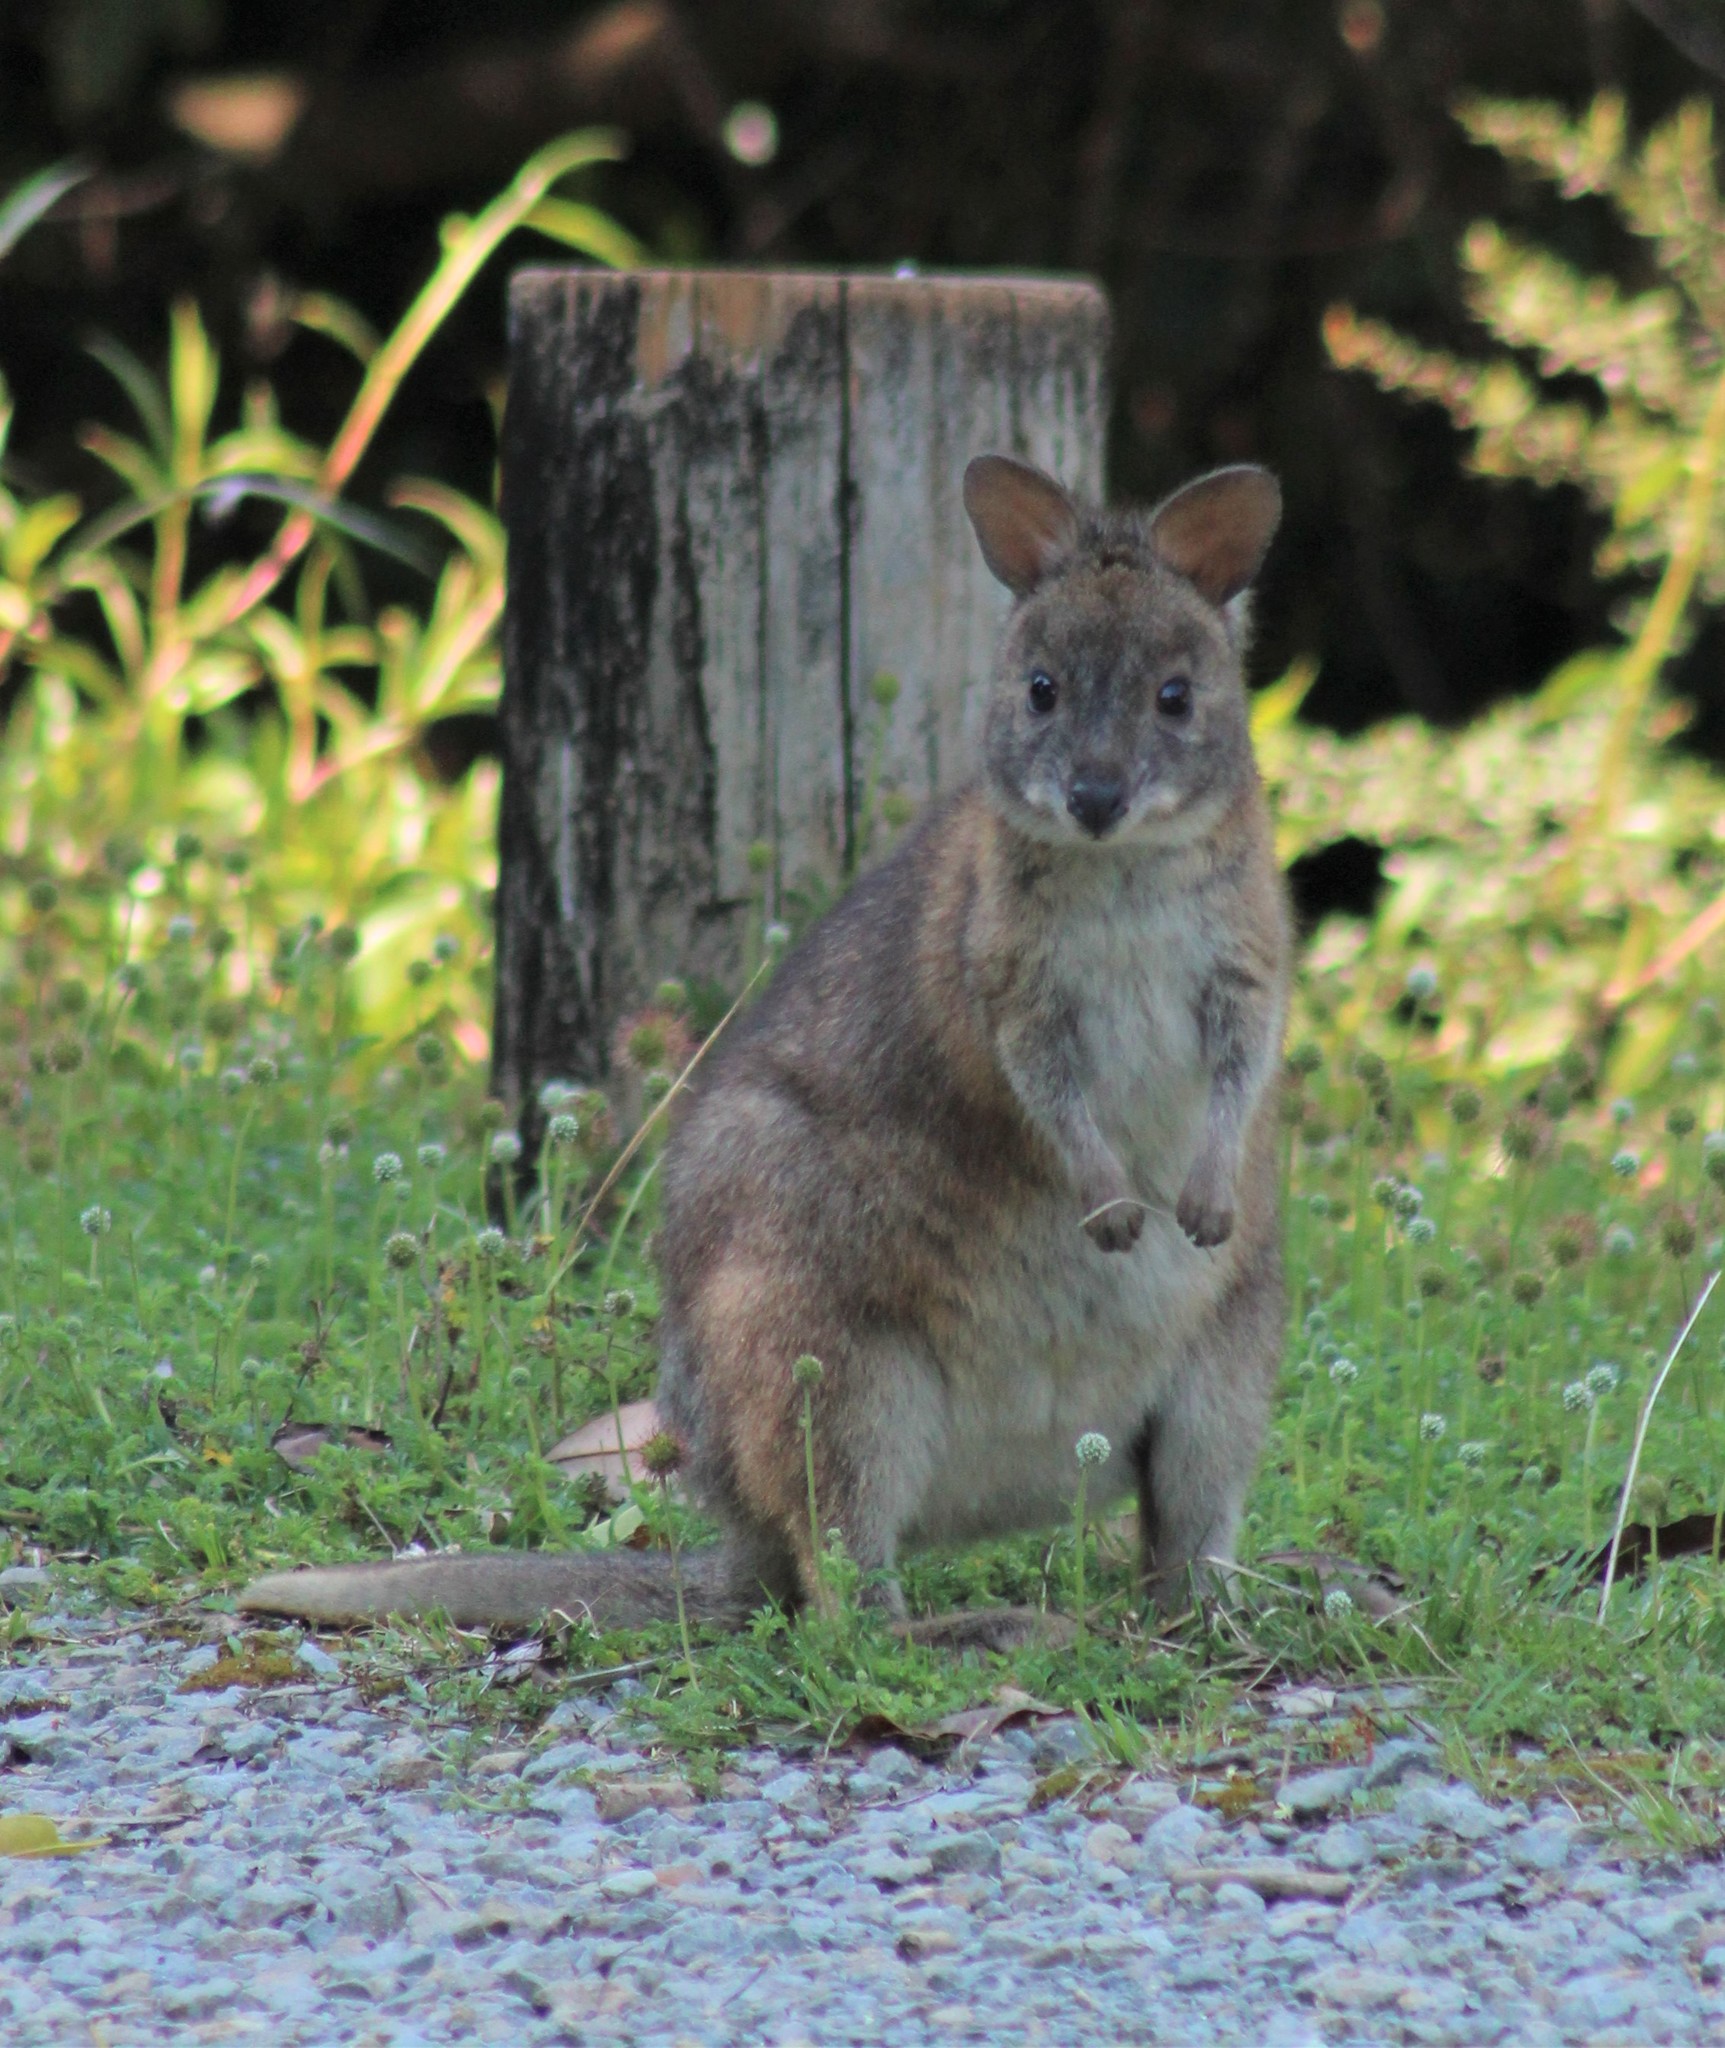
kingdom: Animalia
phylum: Chordata
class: Mammalia
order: Diprotodontia
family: Macropodidae
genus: Thylogale
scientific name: Thylogale thetis
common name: Red-necked pademelon
